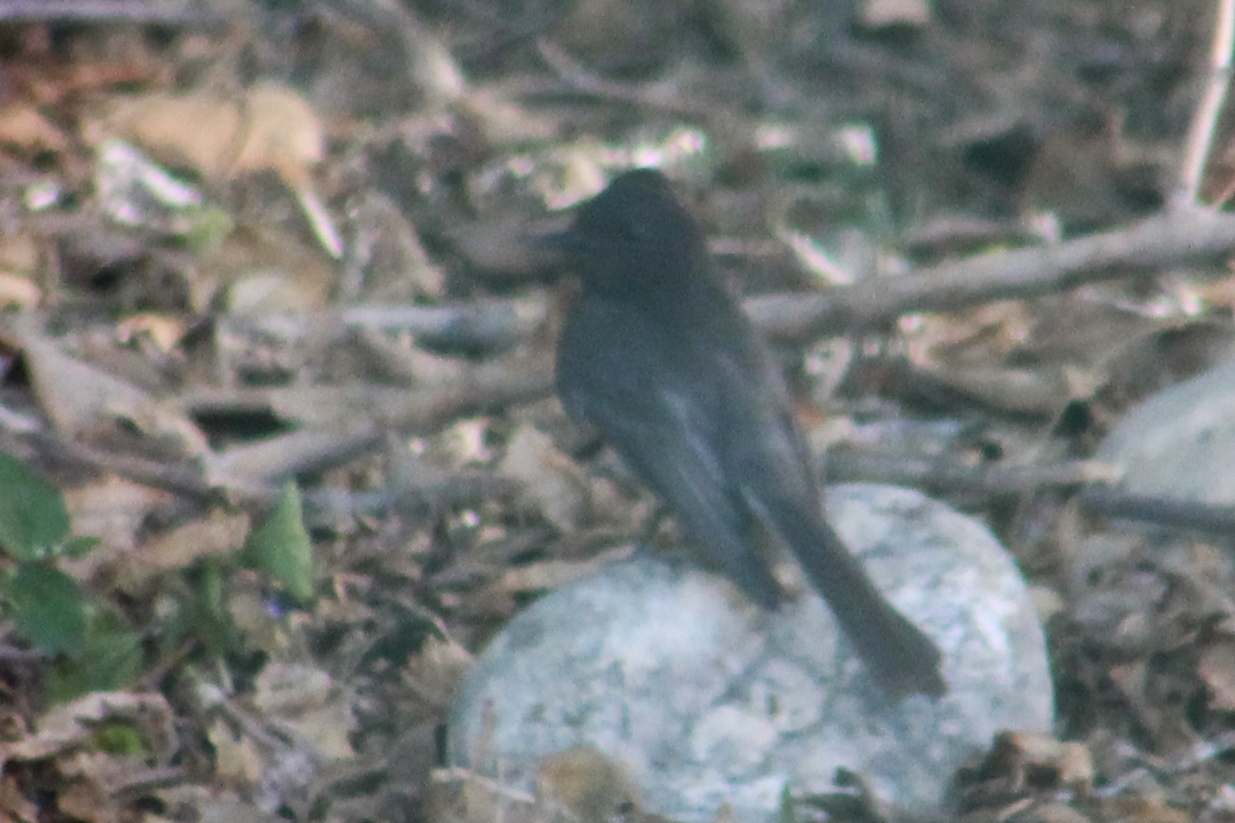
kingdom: Animalia
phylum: Chordata
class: Aves
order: Passeriformes
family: Tyrannidae
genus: Sayornis
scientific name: Sayornis nigricans
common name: Black phoebe
